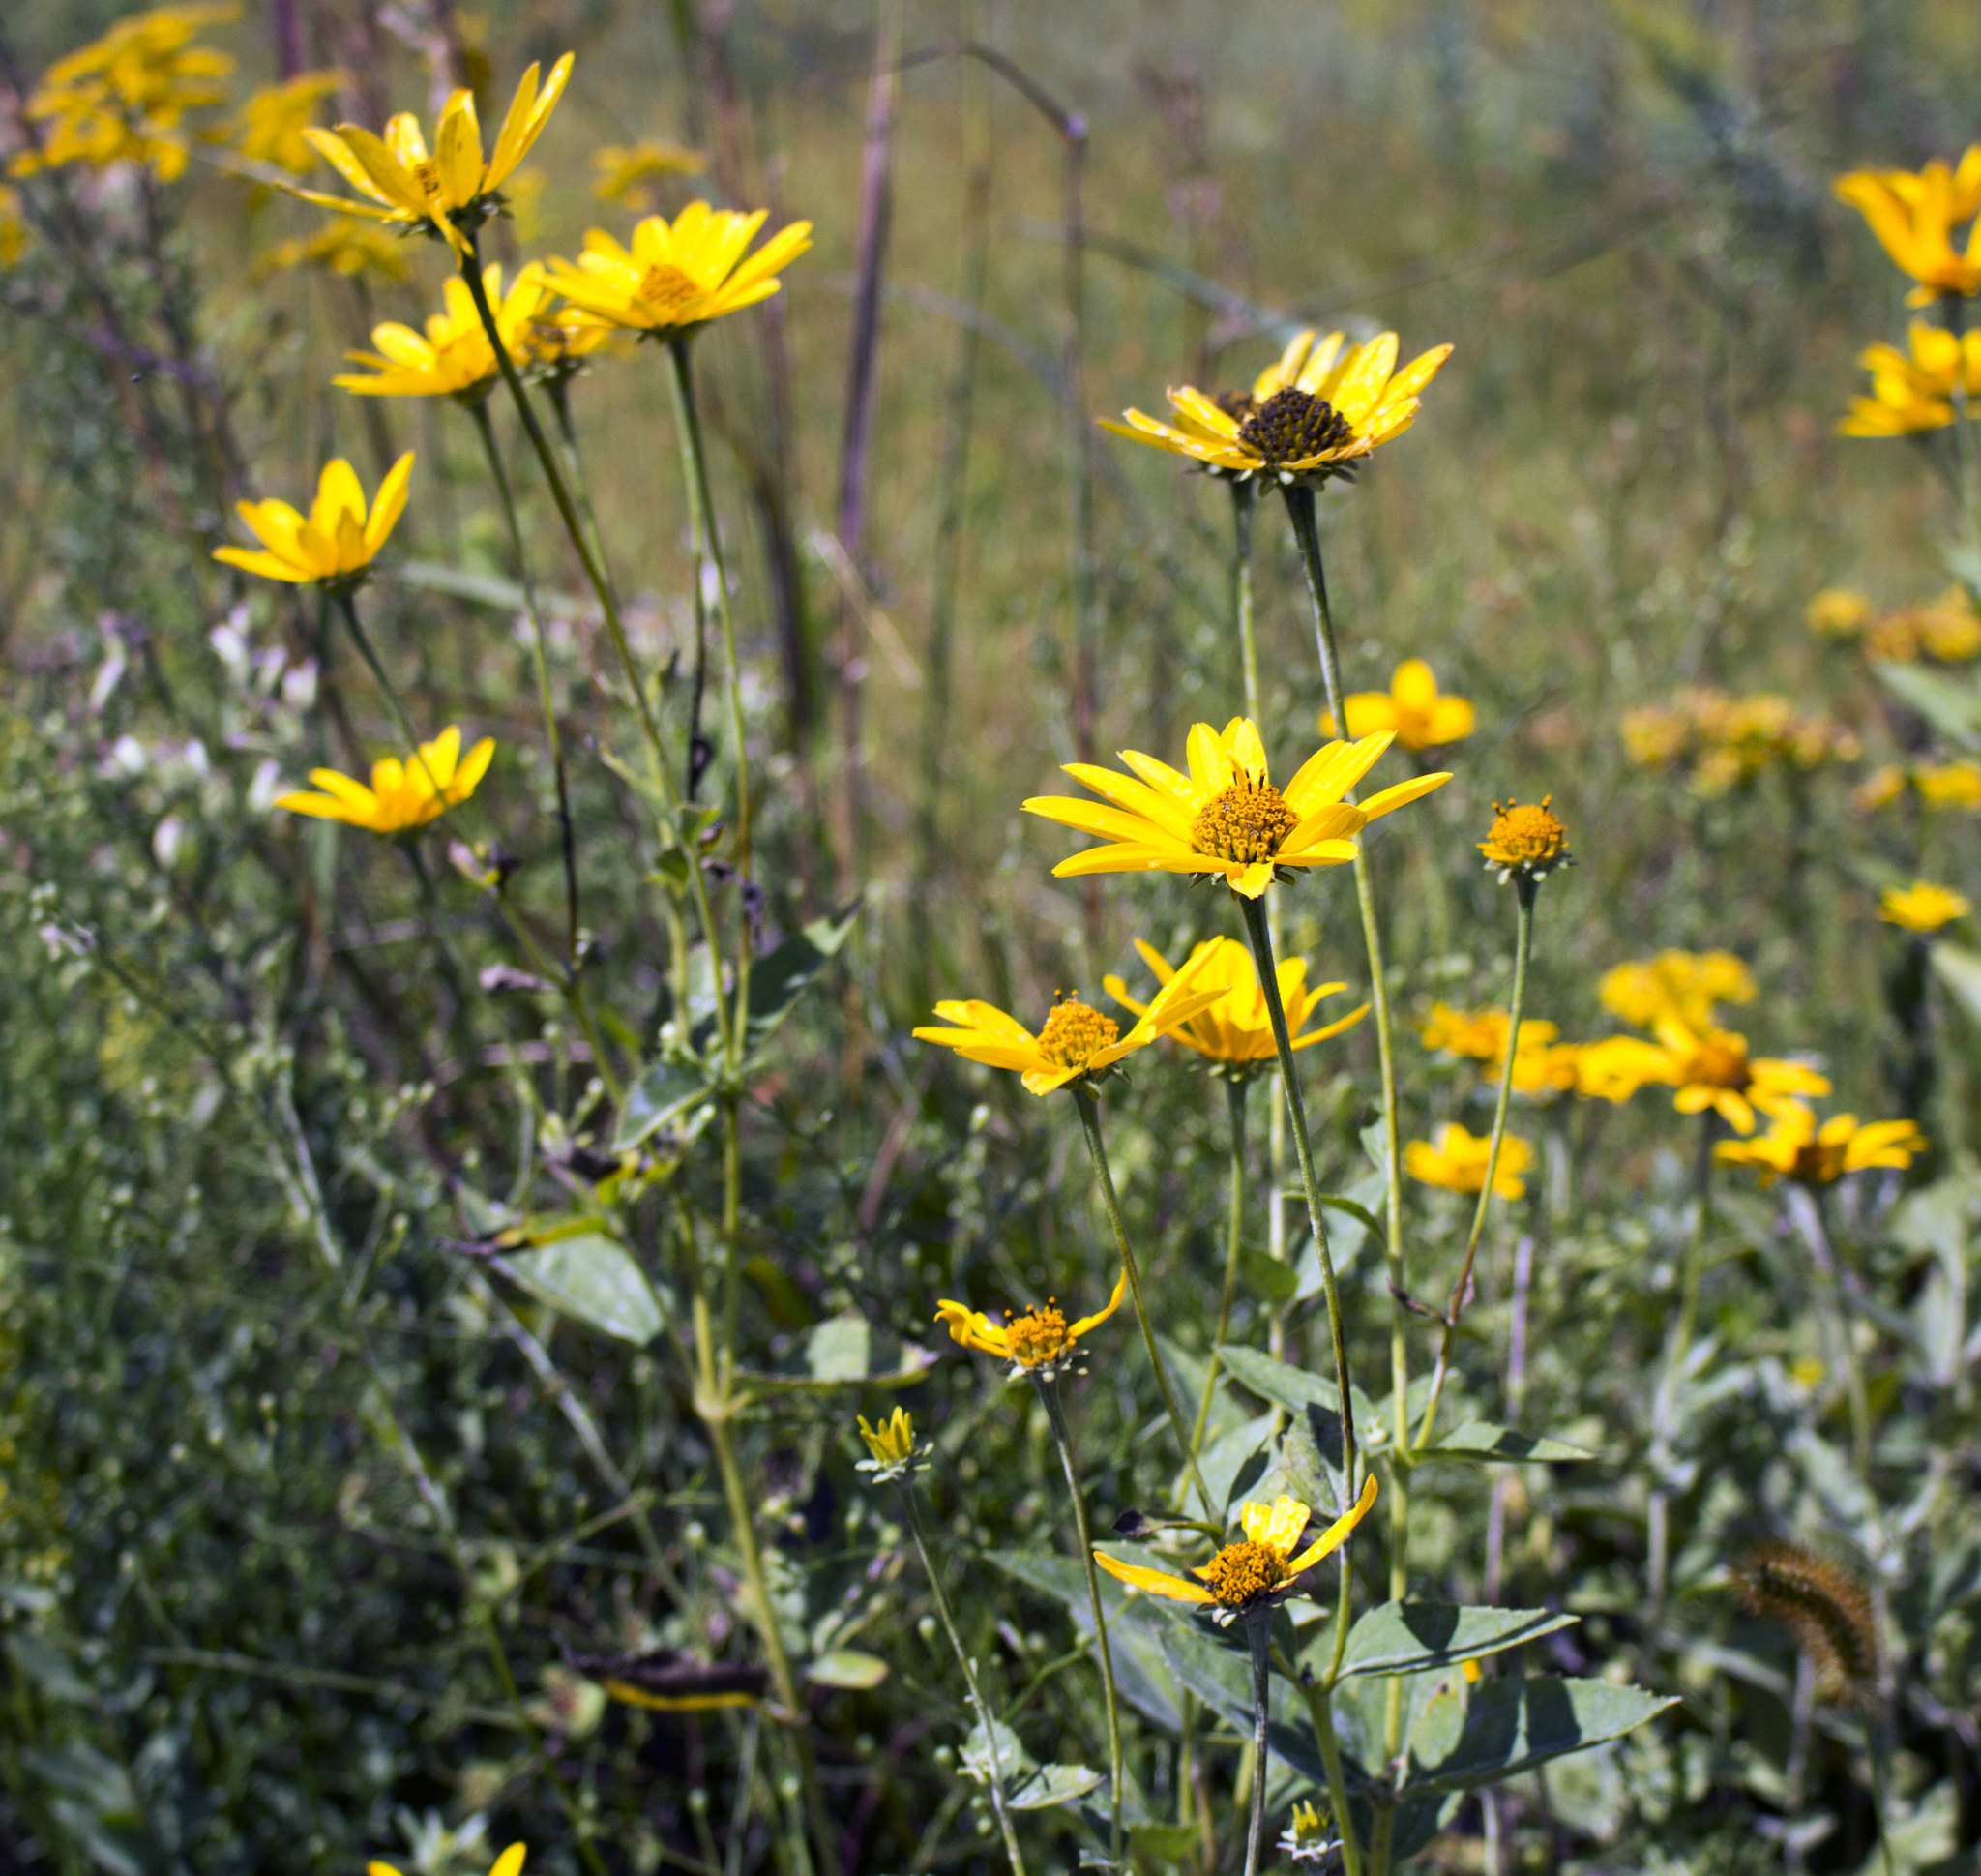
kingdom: Plantae
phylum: Tracheophyta
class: Magnoliopsida
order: Asterales
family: Asteraceae
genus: Heliopsis
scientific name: Heliopsis helianthoides
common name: False sunflower
